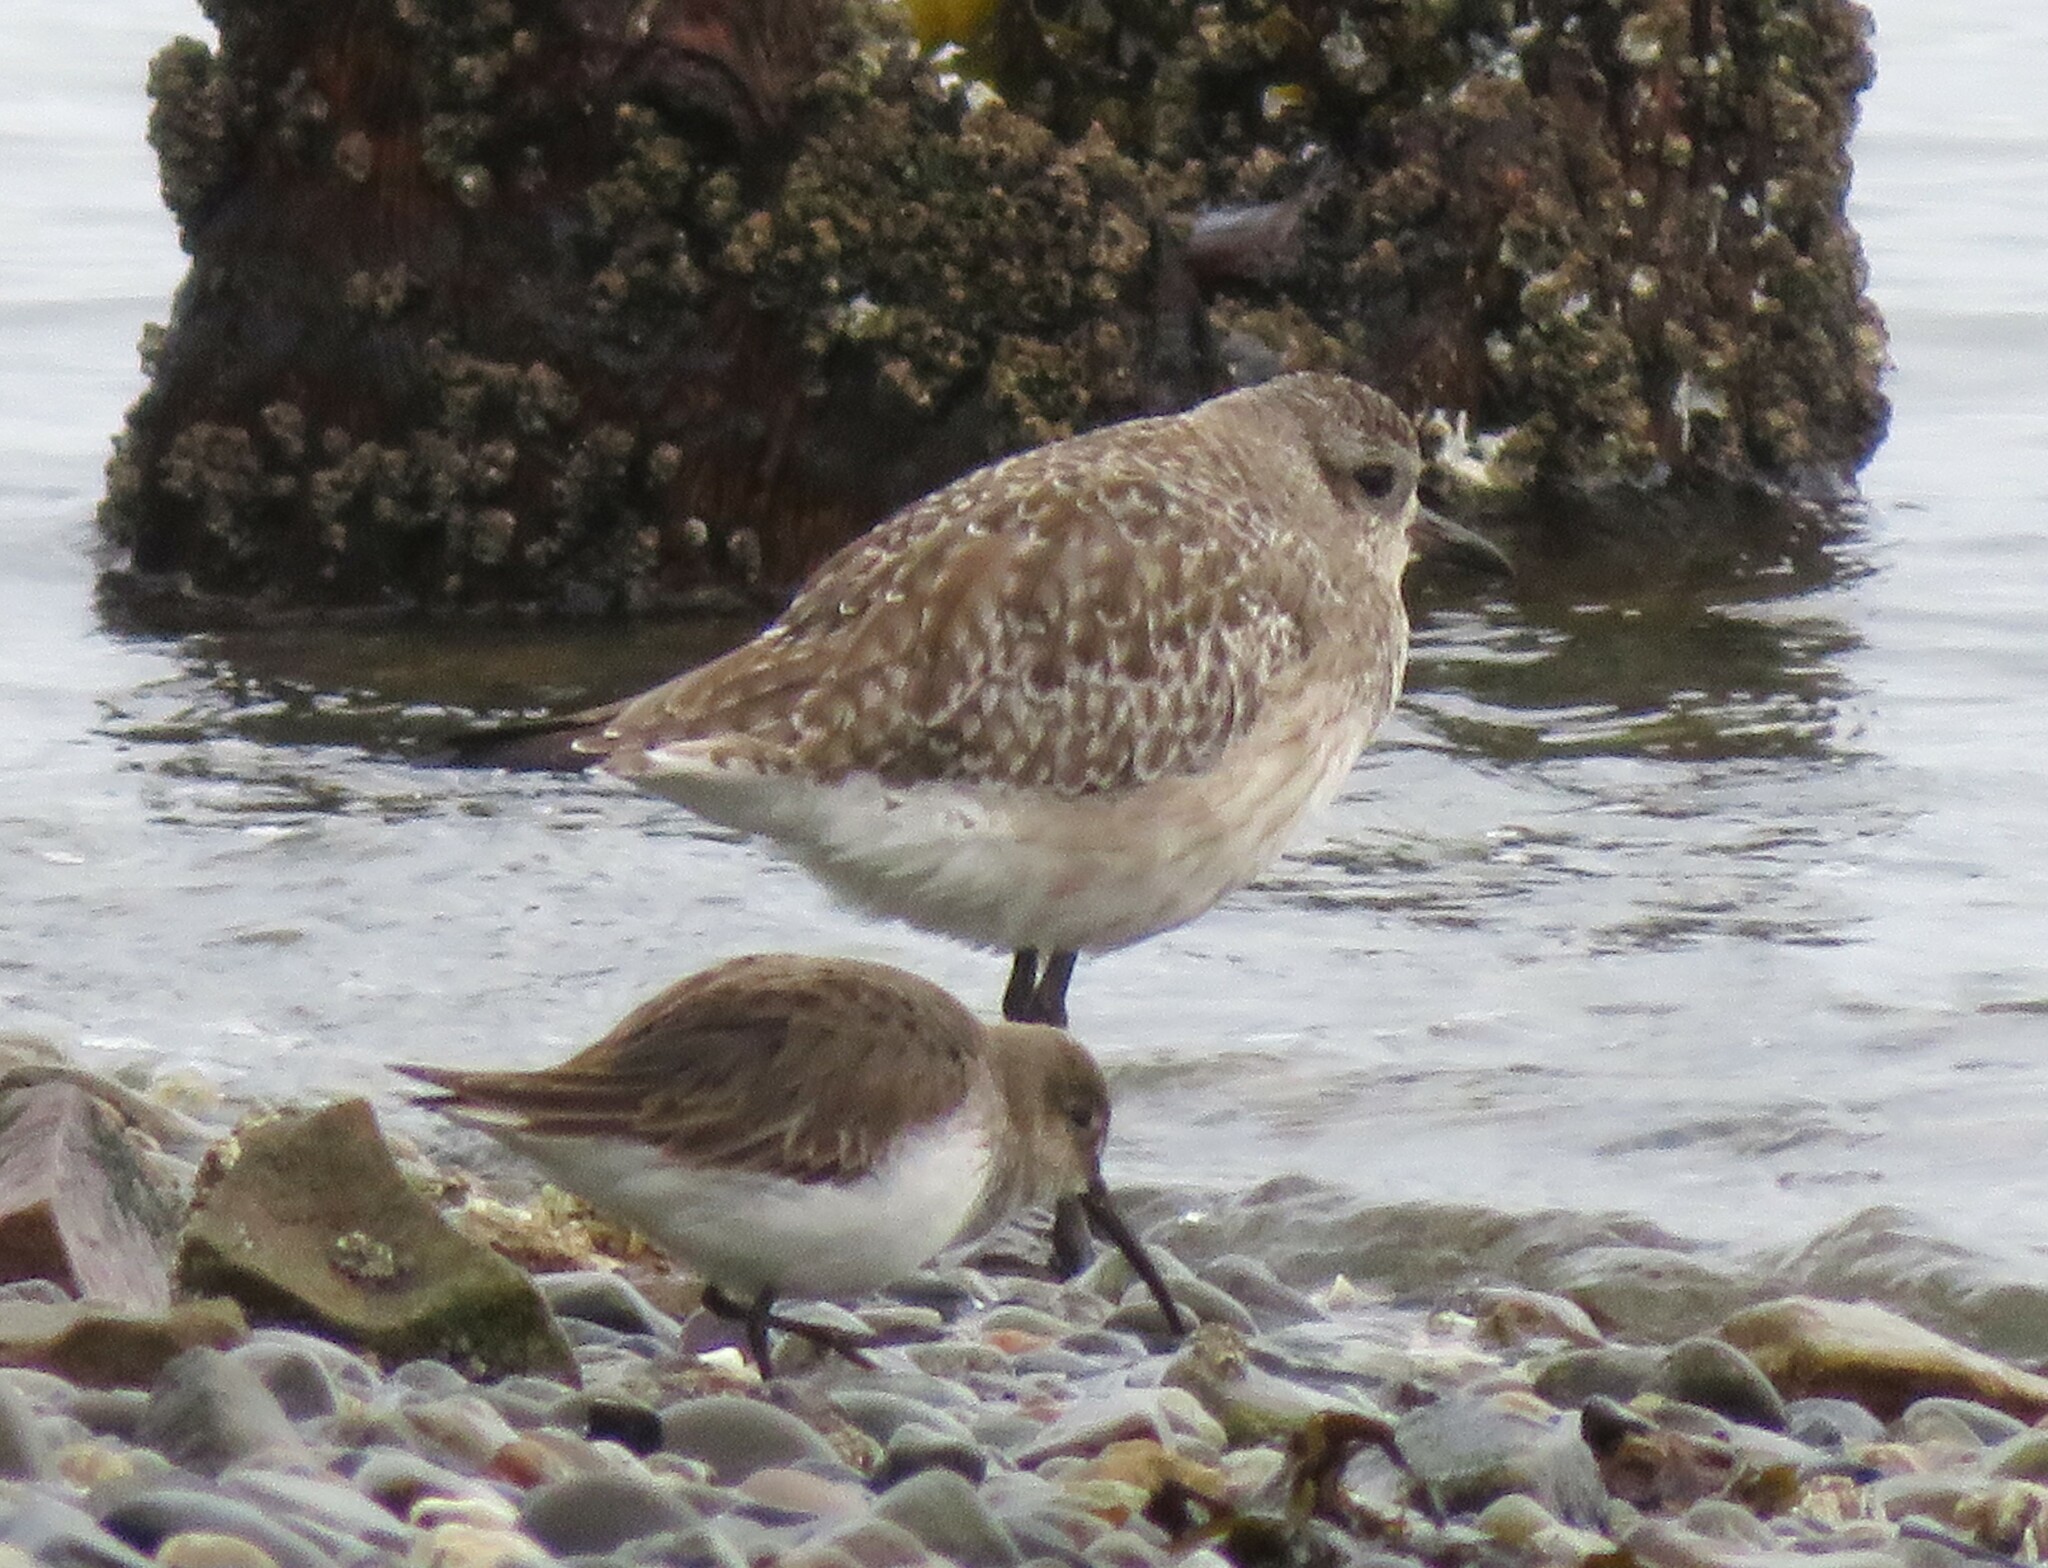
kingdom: Animalia
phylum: Chordata
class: Aves
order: Charadriiformes
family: Charadriidae
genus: Pluvialis
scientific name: Pluvialis squatarola
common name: Grey plover
